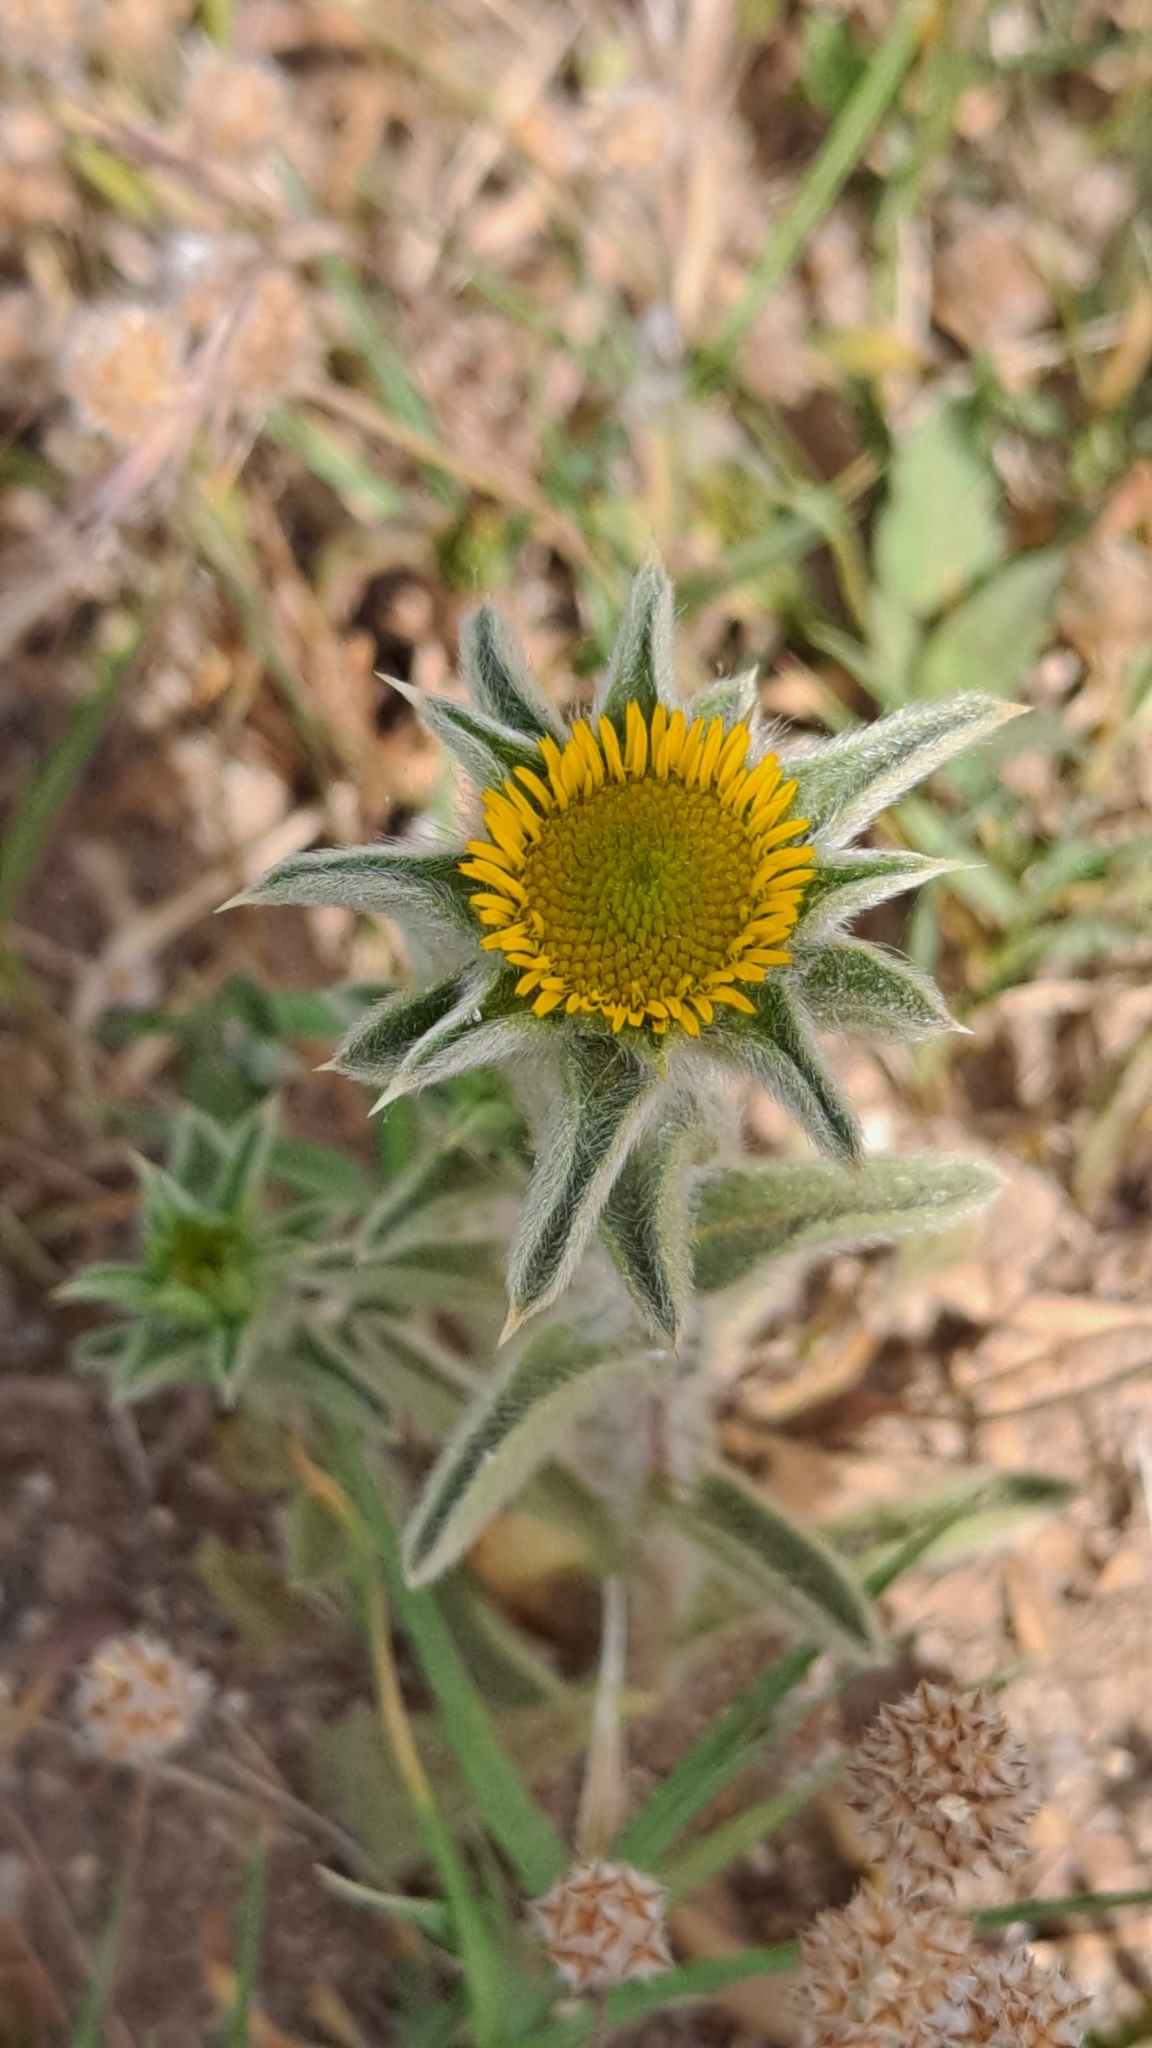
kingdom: Plantae
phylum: Tracheophyta
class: Magnoliopsida
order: Asterales
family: Asteraceae
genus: Pallenis
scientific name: Pallenis spinosa
